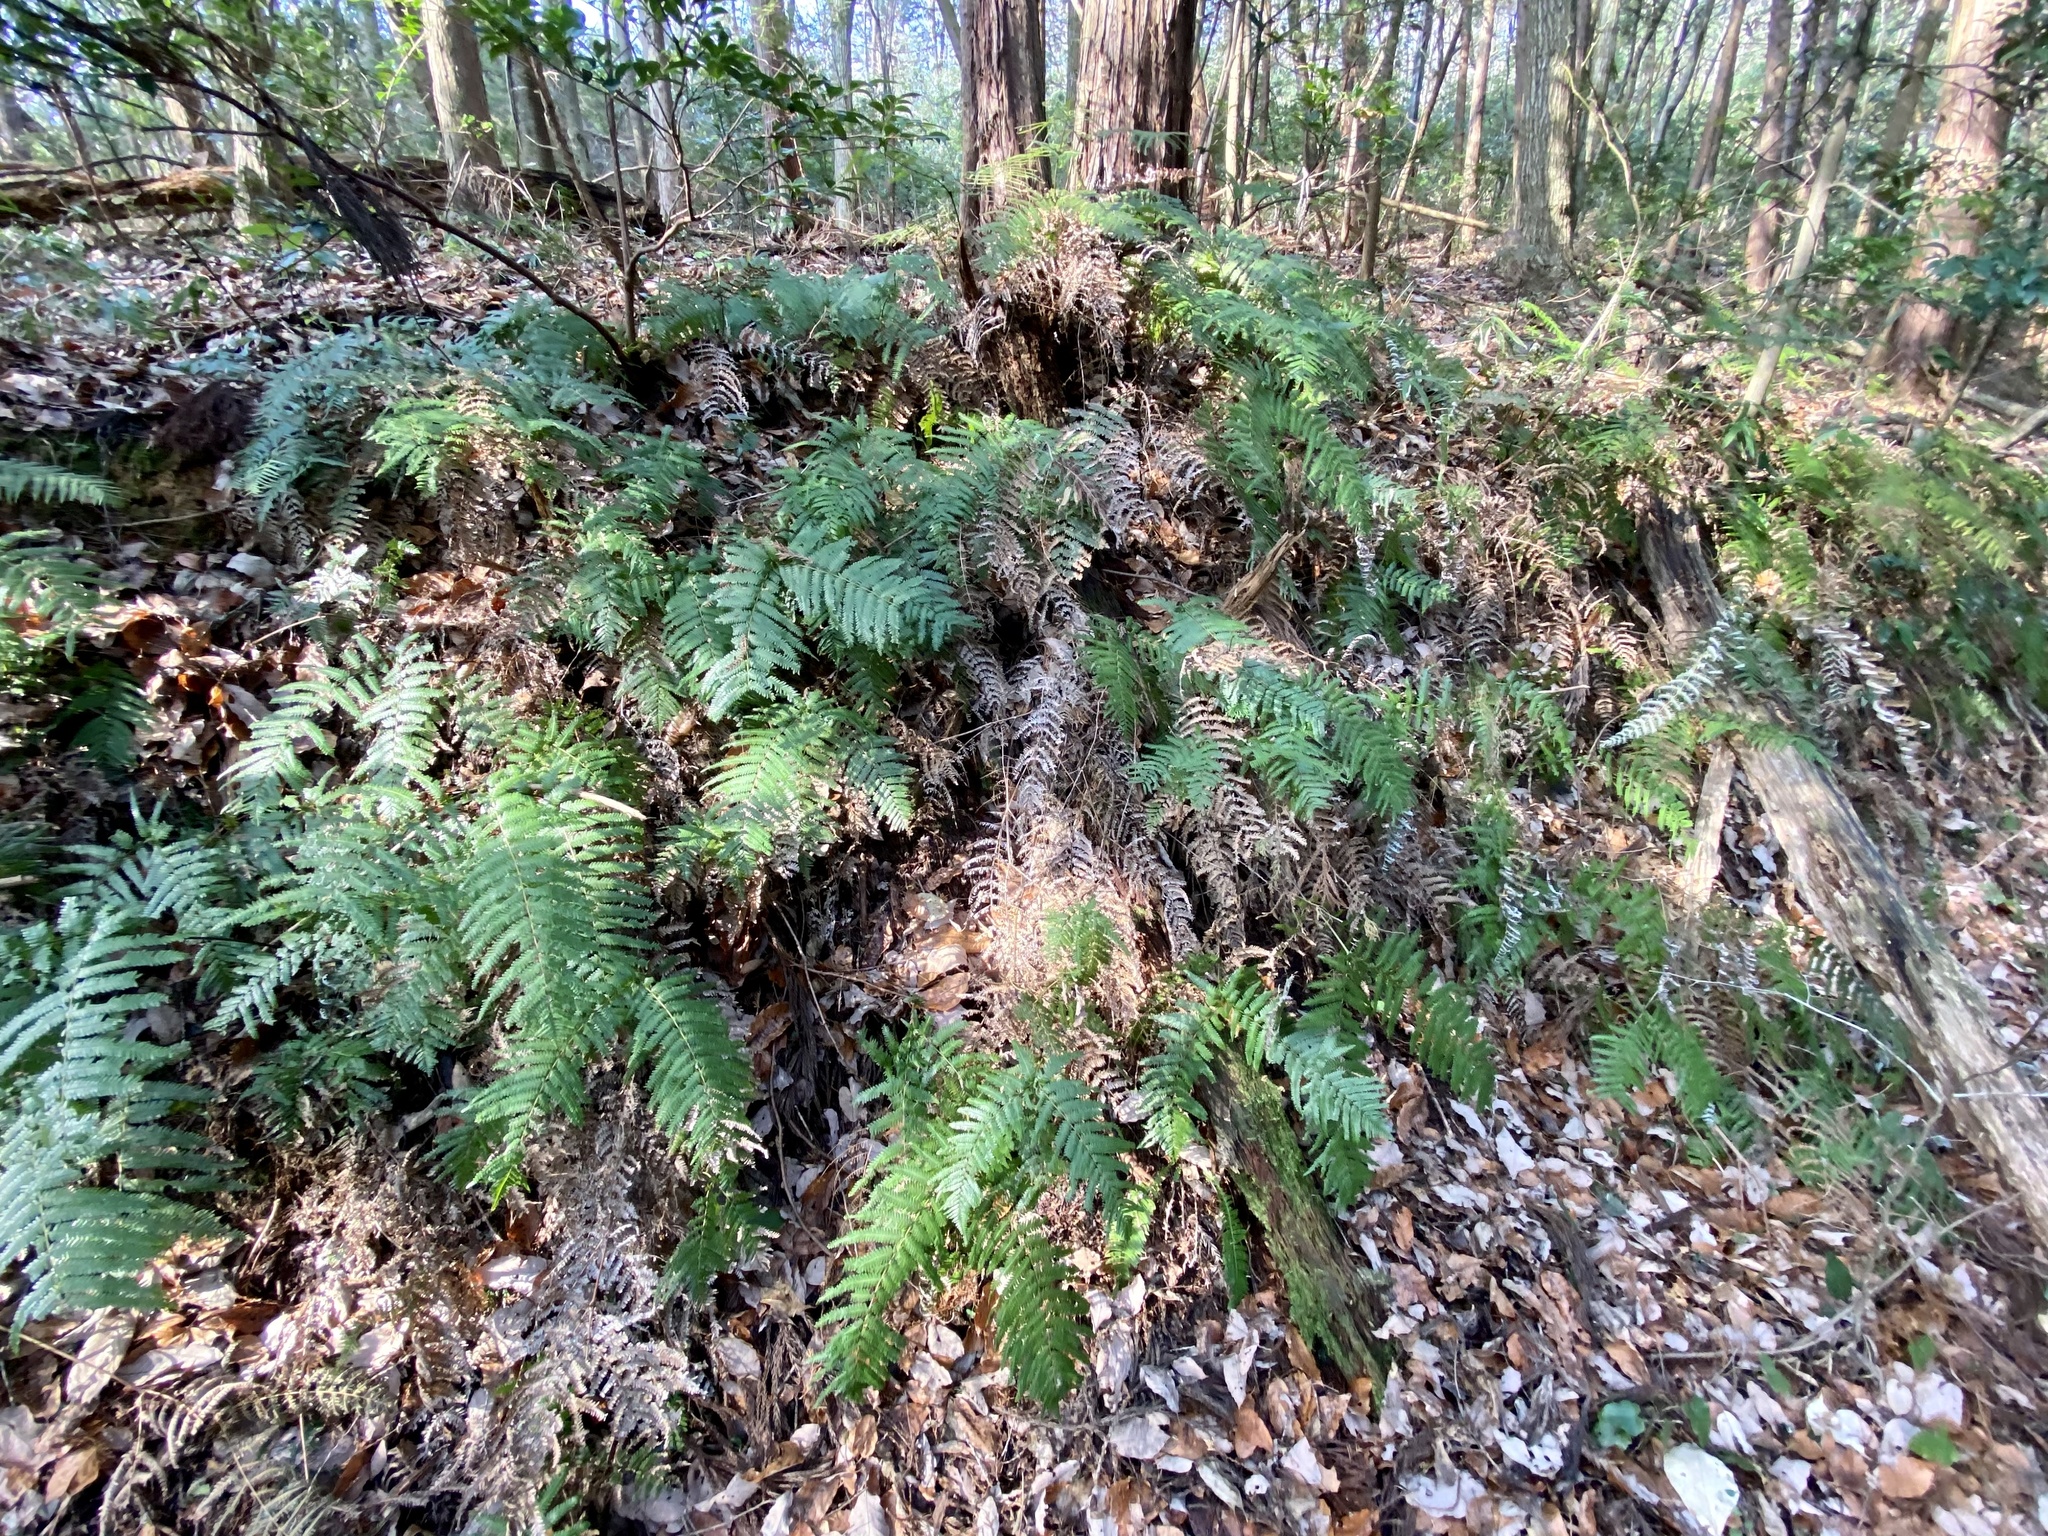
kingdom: Plantae
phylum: Tracheophyta
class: Polypodiopsida
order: Gleicheniales
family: Gleicheniaceae
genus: Diplopterygium
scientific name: Diplopterygium glaucum
